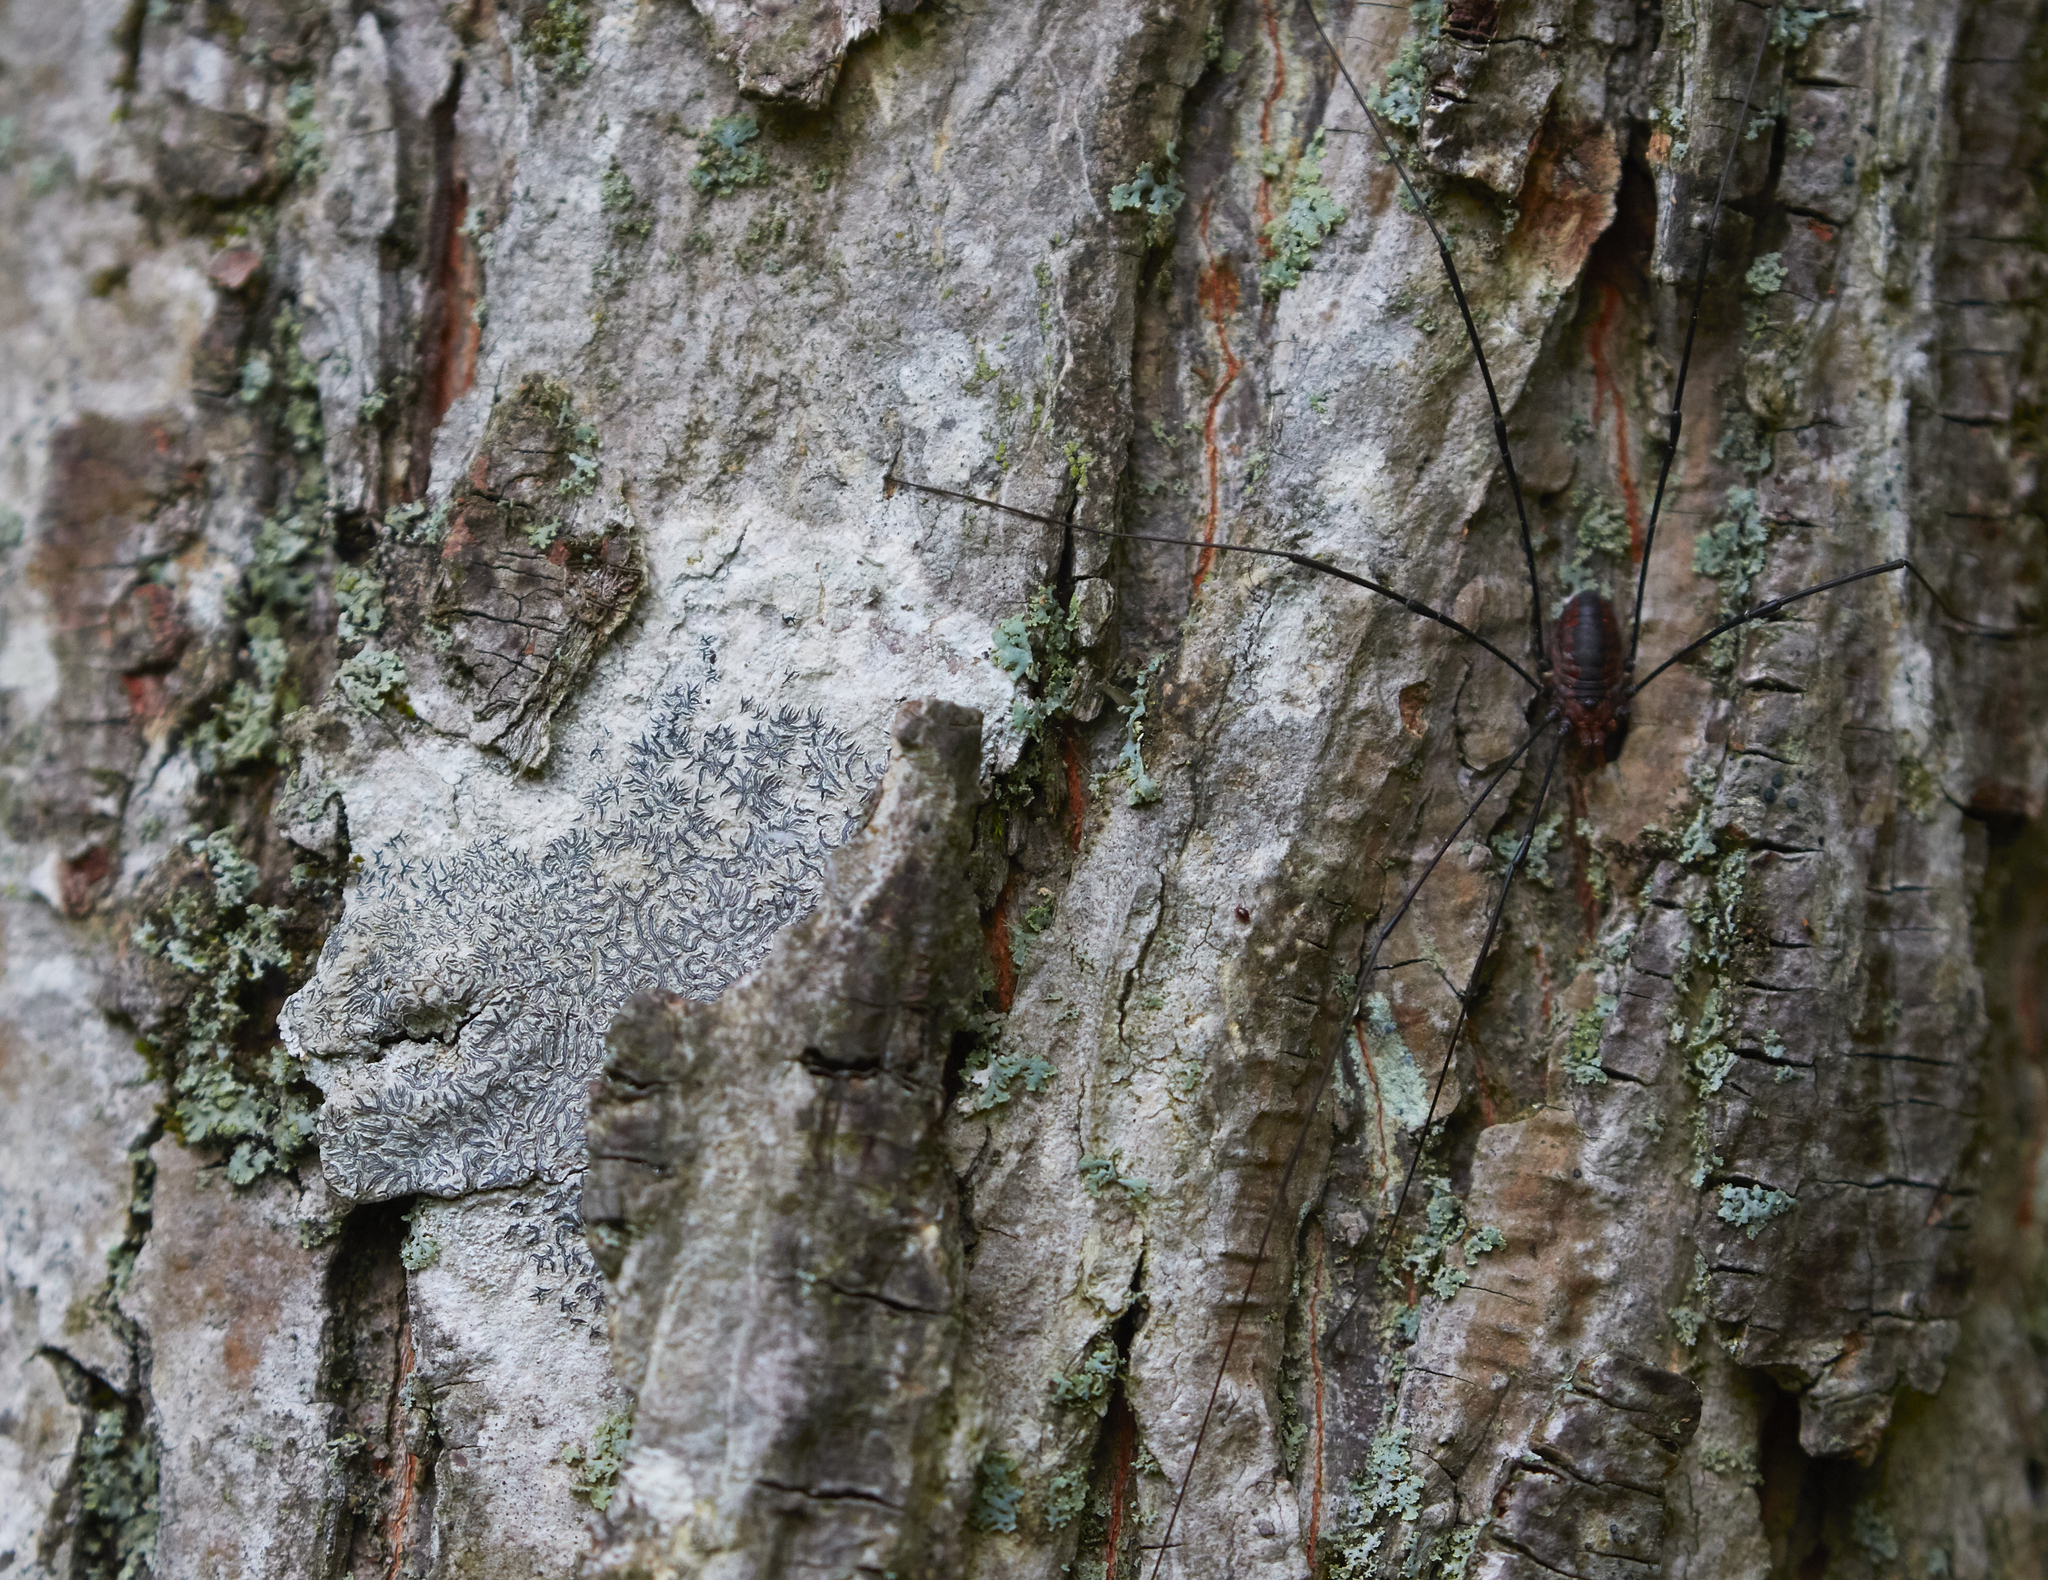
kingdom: Fungi
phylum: Ascomycota
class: Lecanoromycetes
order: Ostropales
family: Graphidaceae
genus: Graphis
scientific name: Graphis scripta
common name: Script lichen
